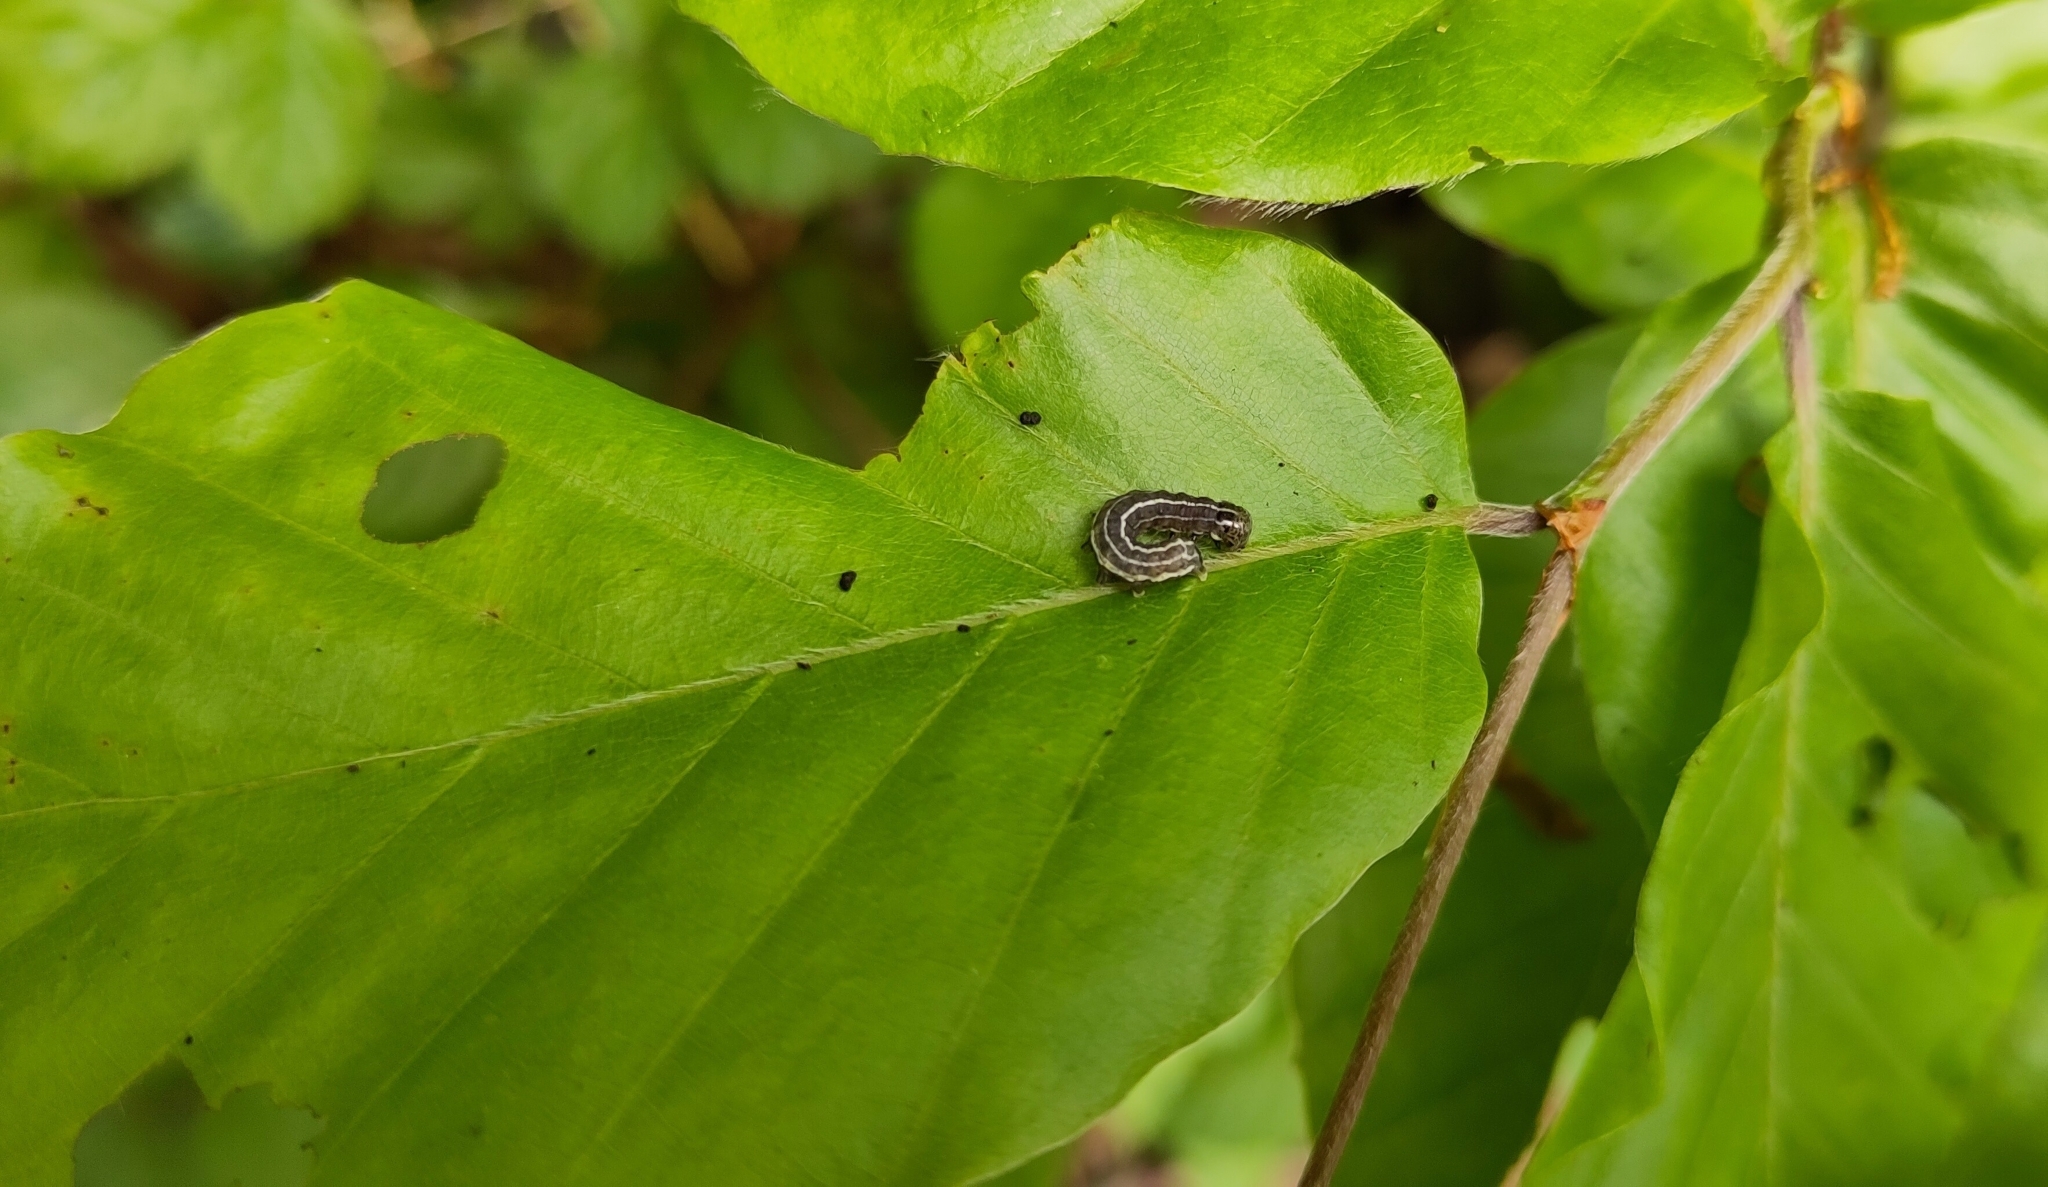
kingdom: Animalia
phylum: Arthropoda
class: Insecta
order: Lepidoptera
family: Noctuidae
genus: Orthosia
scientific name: Orthosia cruda
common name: Small quaker
